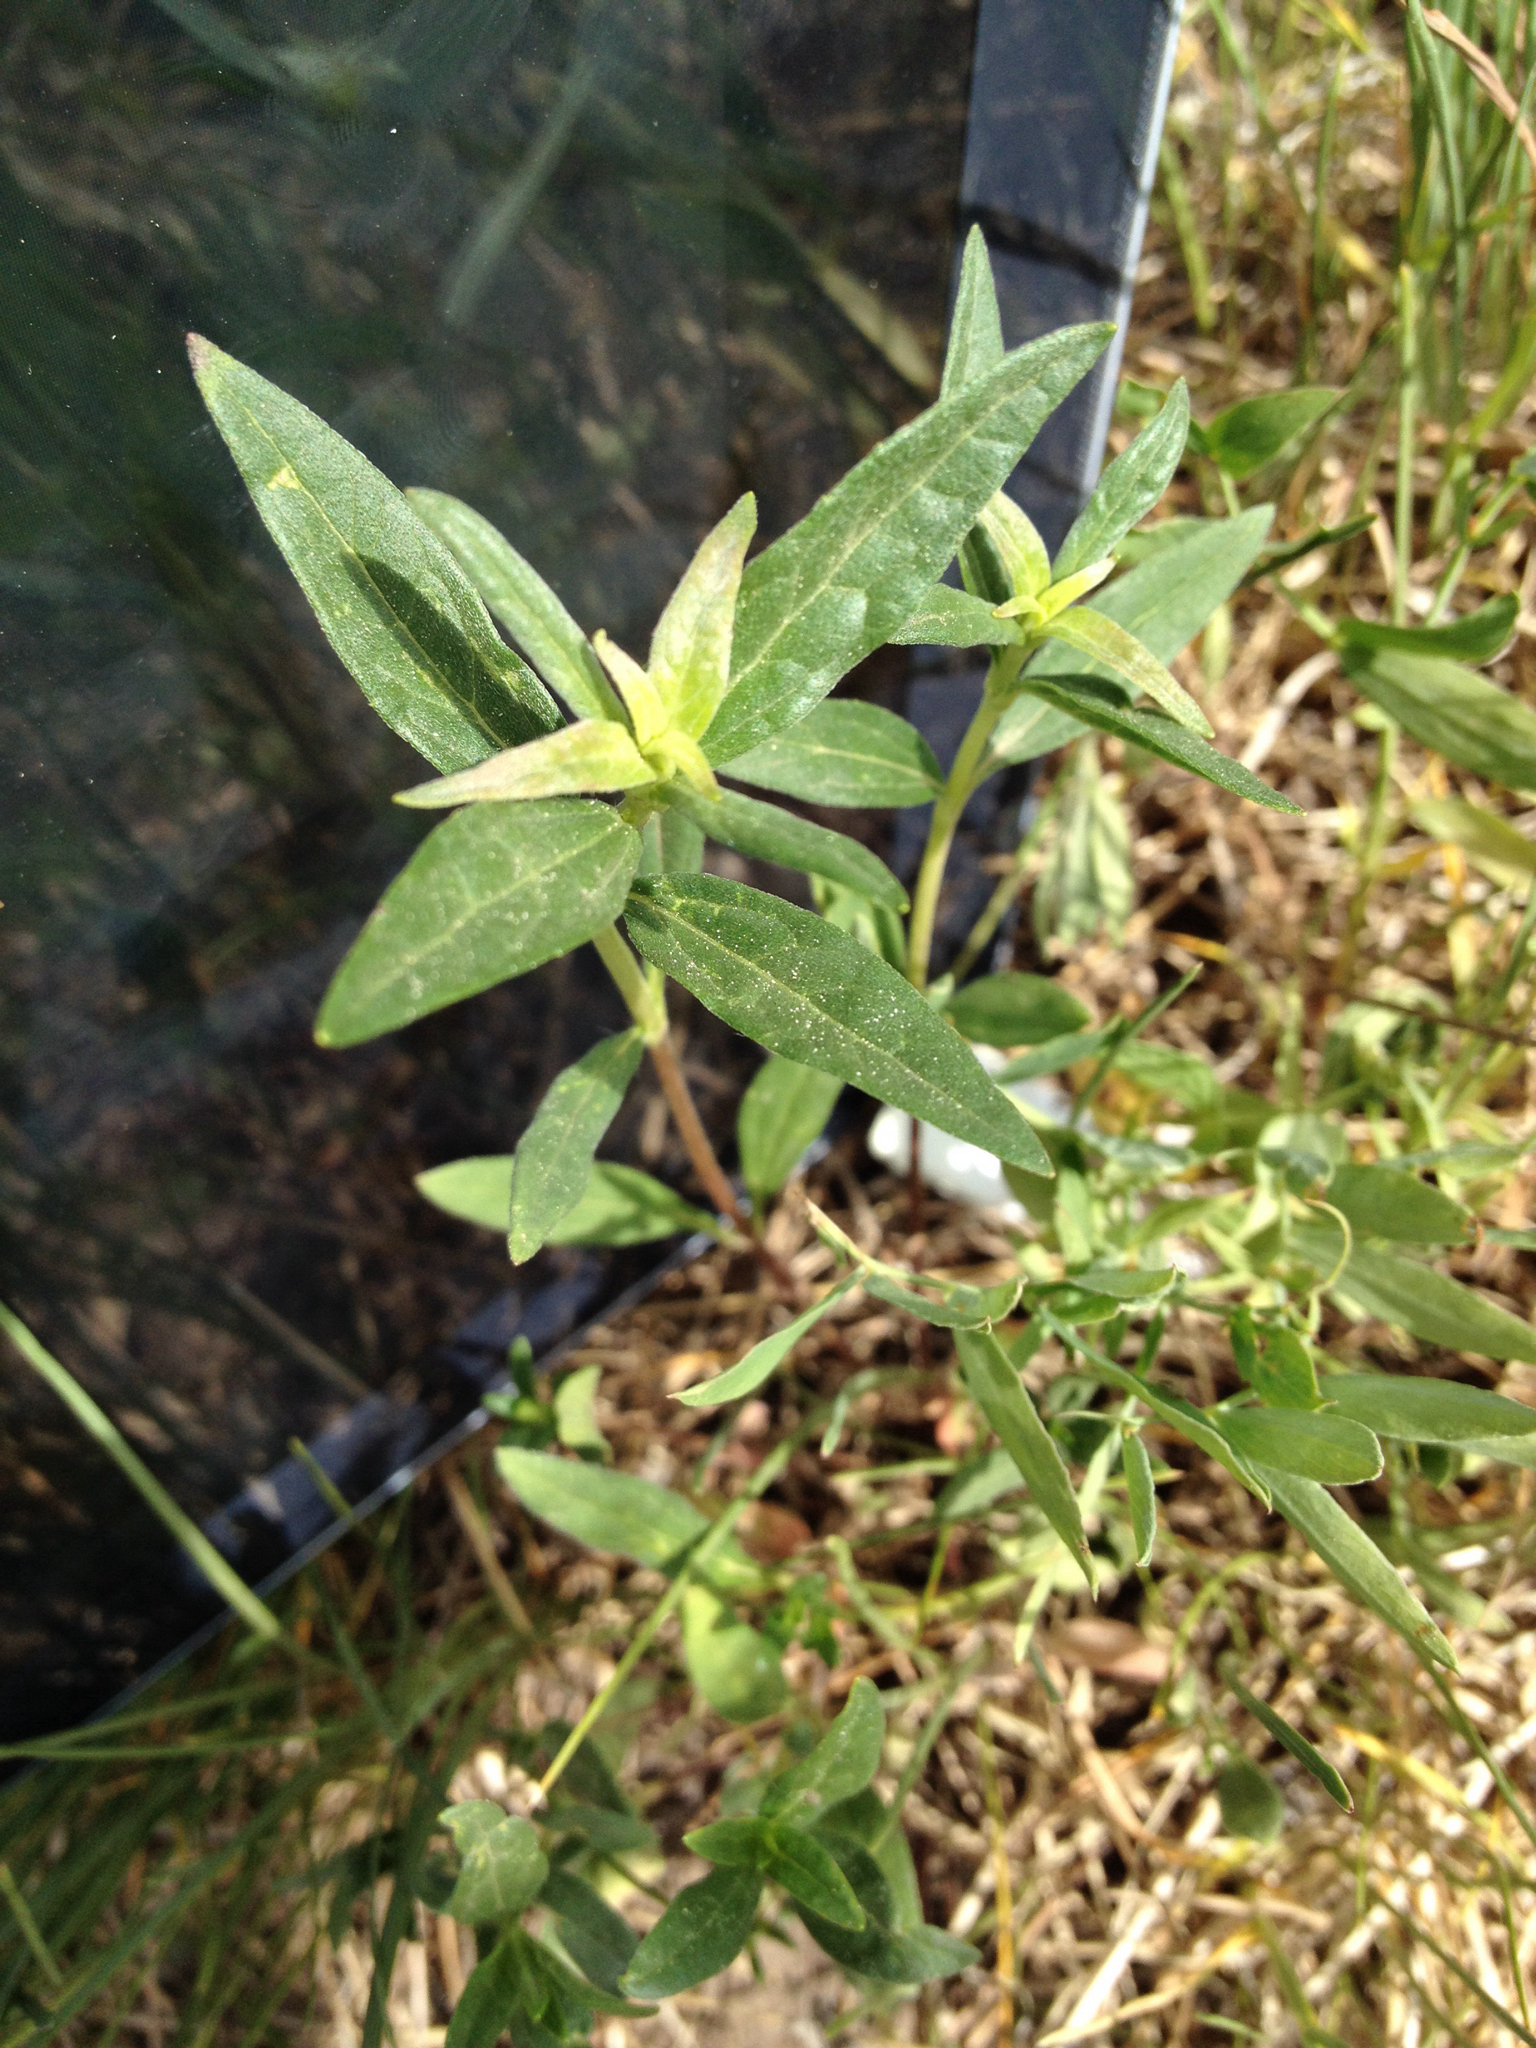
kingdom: Plantae
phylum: Tracheophyta
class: Magnoliopsida
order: Asterales
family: Asteraceae
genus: Heliomeris
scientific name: Heliomeris multiflora
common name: Showy goldeneye
